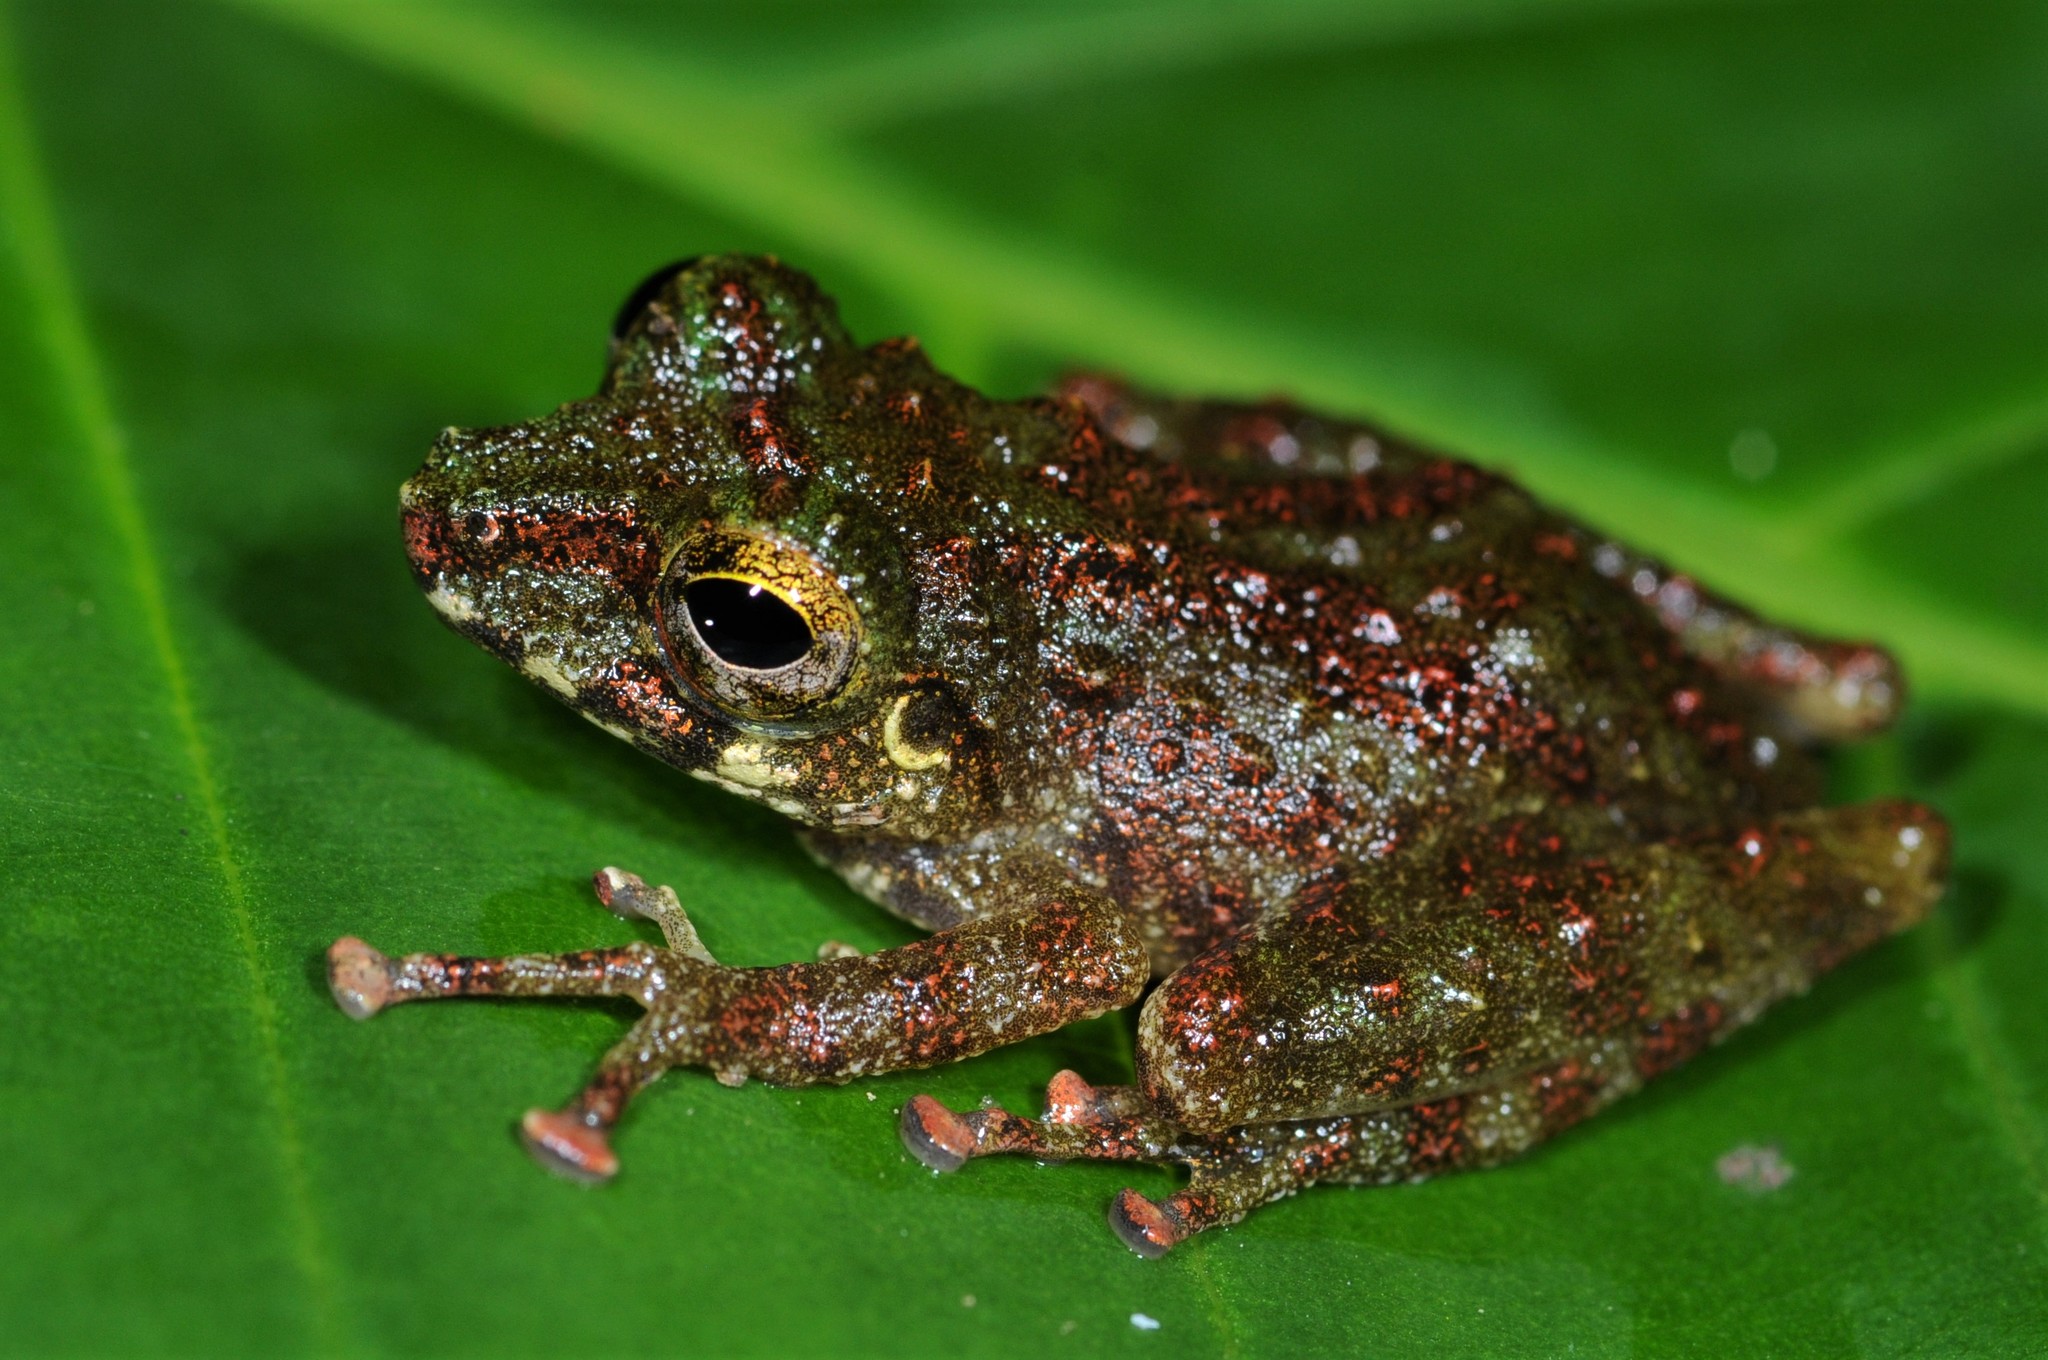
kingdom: Animalia
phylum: Chordata
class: Amphibia
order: Anura
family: Rhacophoridae
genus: Philautus
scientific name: Philautus tectus
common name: Gunung mulu bubble-nest frog
